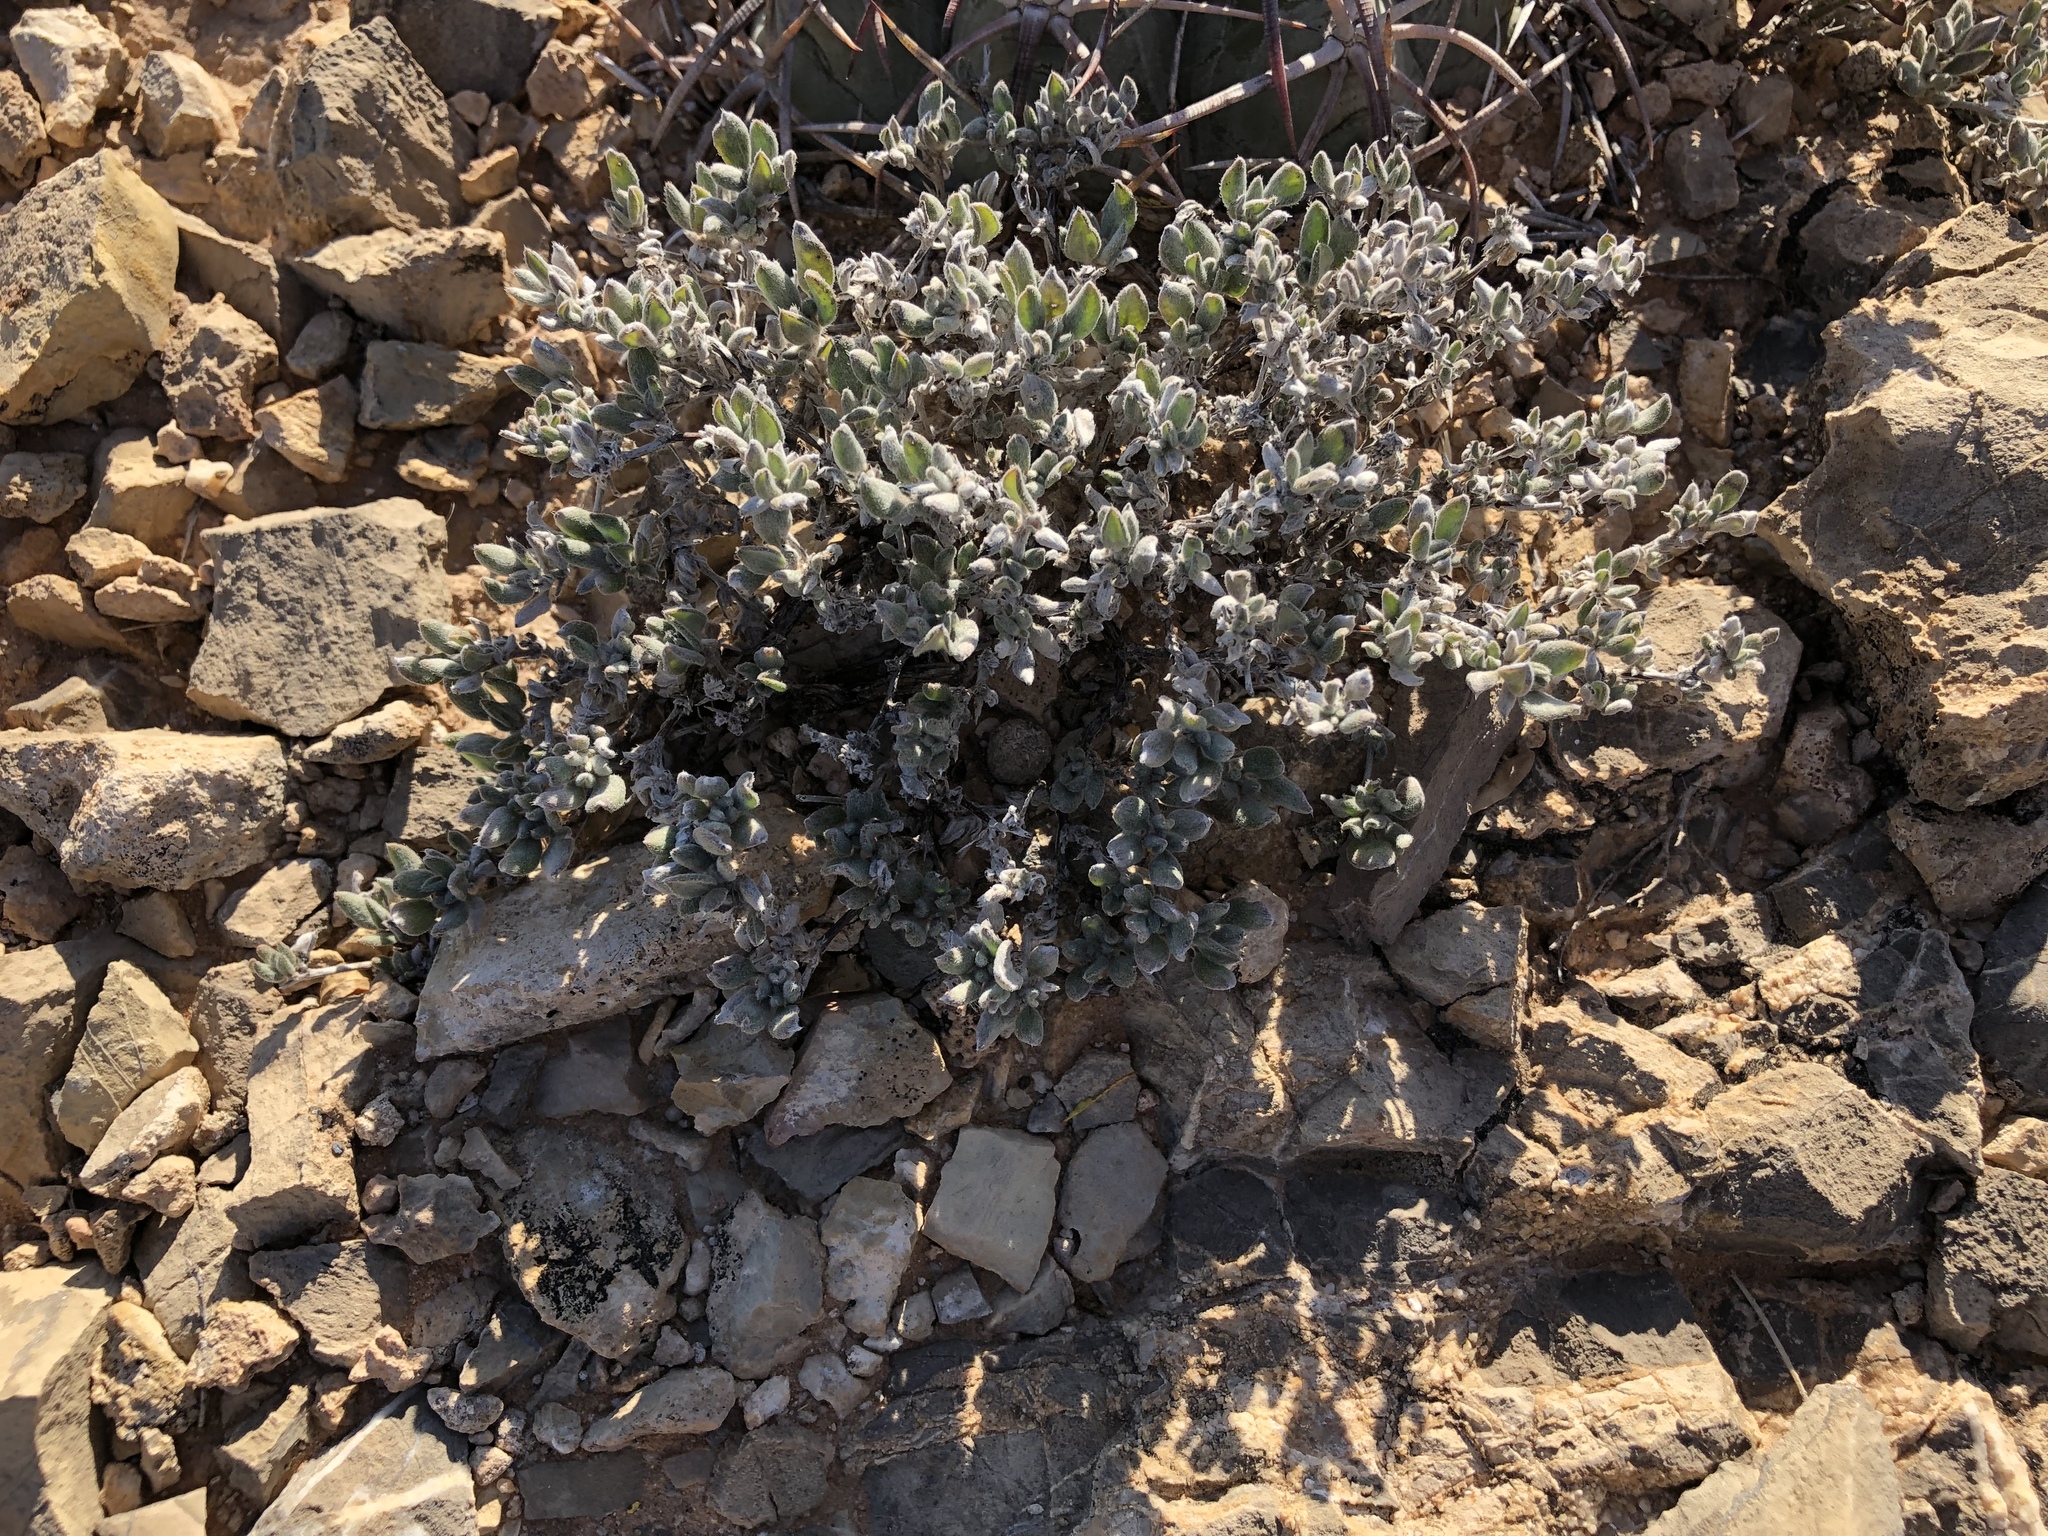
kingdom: Plantae
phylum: Tracheophyta
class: Magnoliopsida
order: Boraginales
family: Ehretiaceae
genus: Tiquilia
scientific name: Tiquilia canescens
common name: Hairy tiquilia
